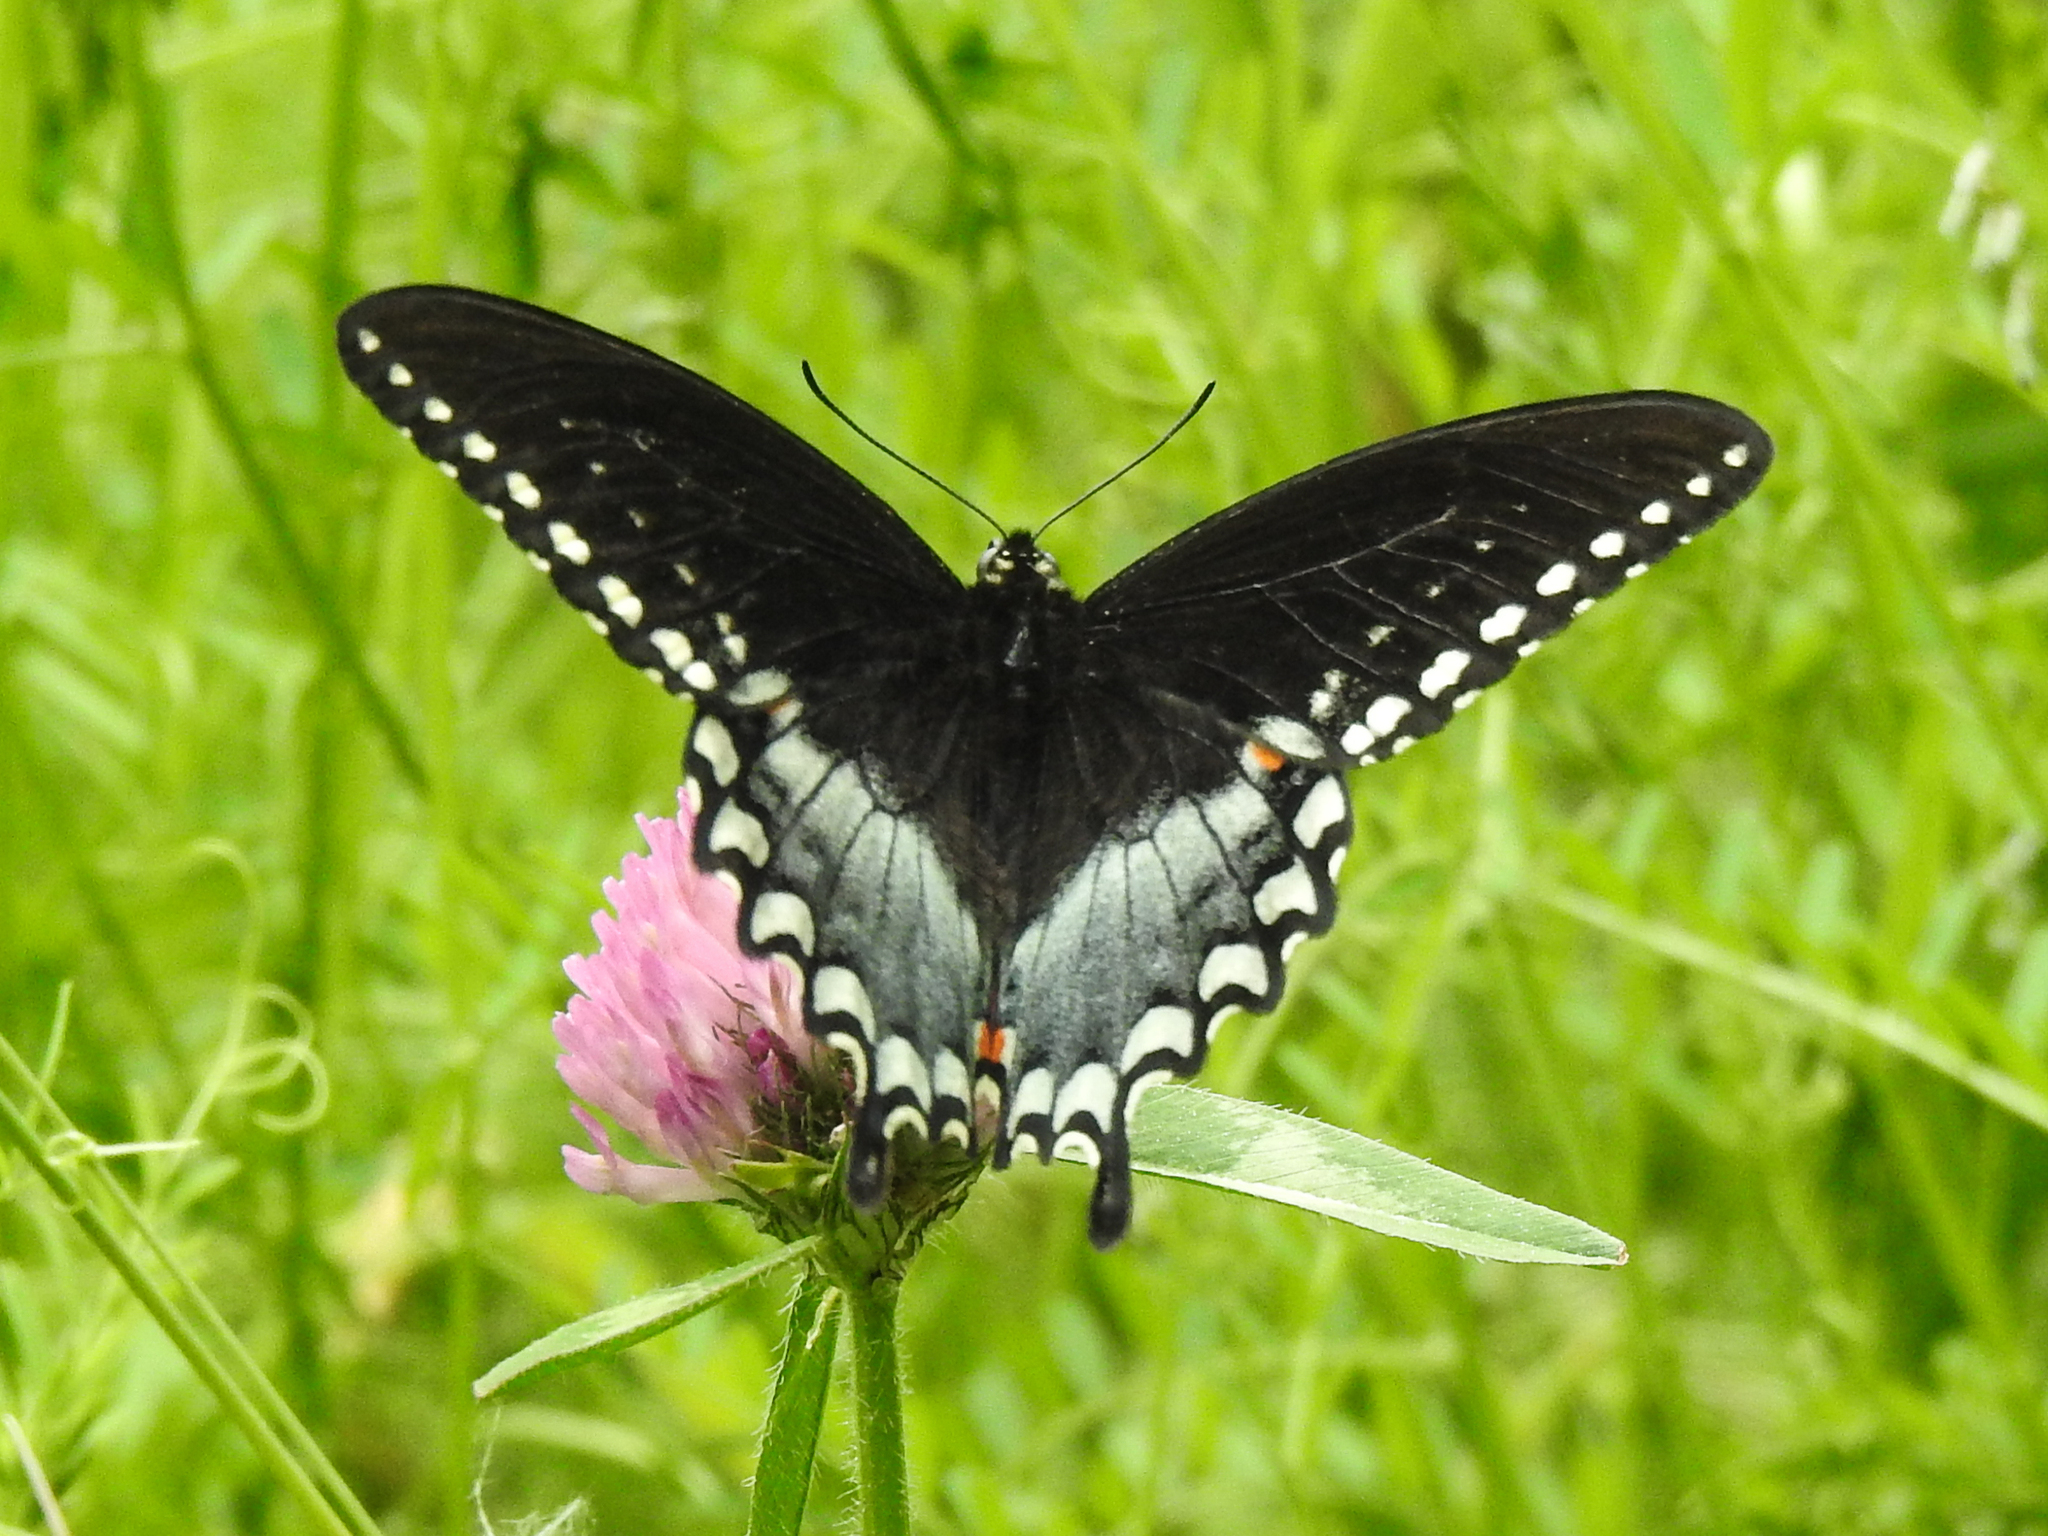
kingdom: Animalia
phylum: Arthropoda
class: Insecta
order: Lepidoptera
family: Papilionidae
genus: Papilio
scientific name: Papilio troilus
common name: Spicebush swallowtail
